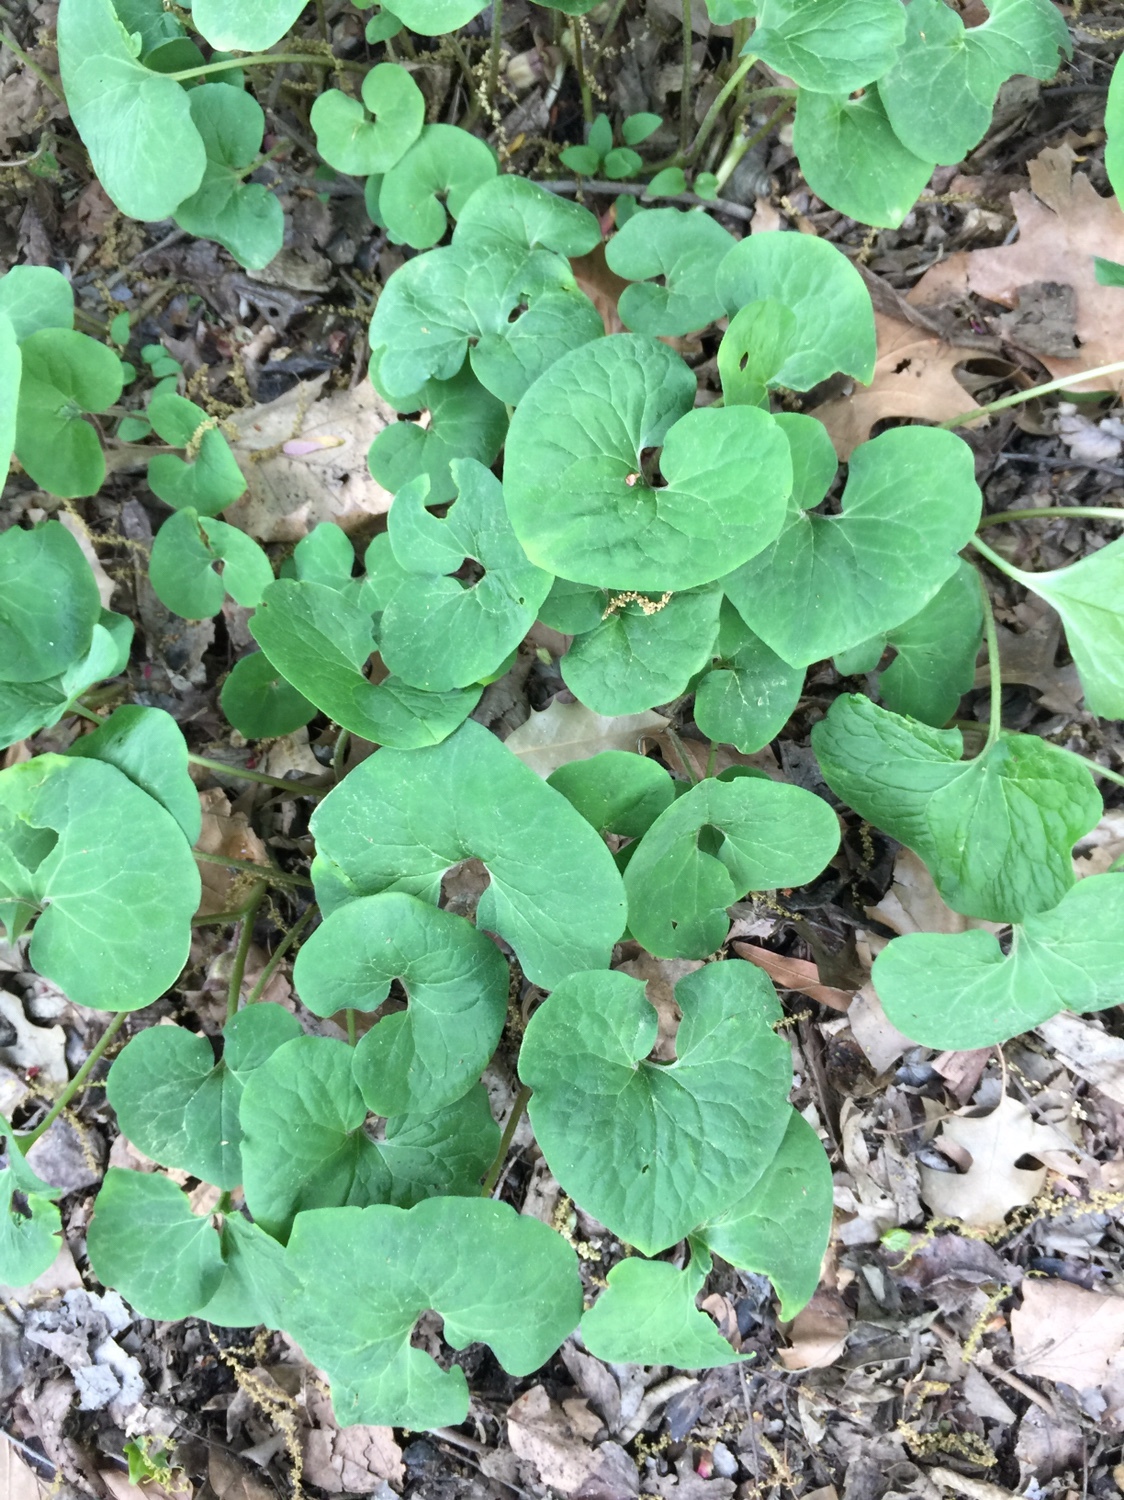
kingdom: Plantae
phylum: Tracheophyta
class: Magnoliopsida
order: Piperales
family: Aristolochiaceae
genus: Asarum
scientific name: Asarum canadense
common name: Wild ginger
